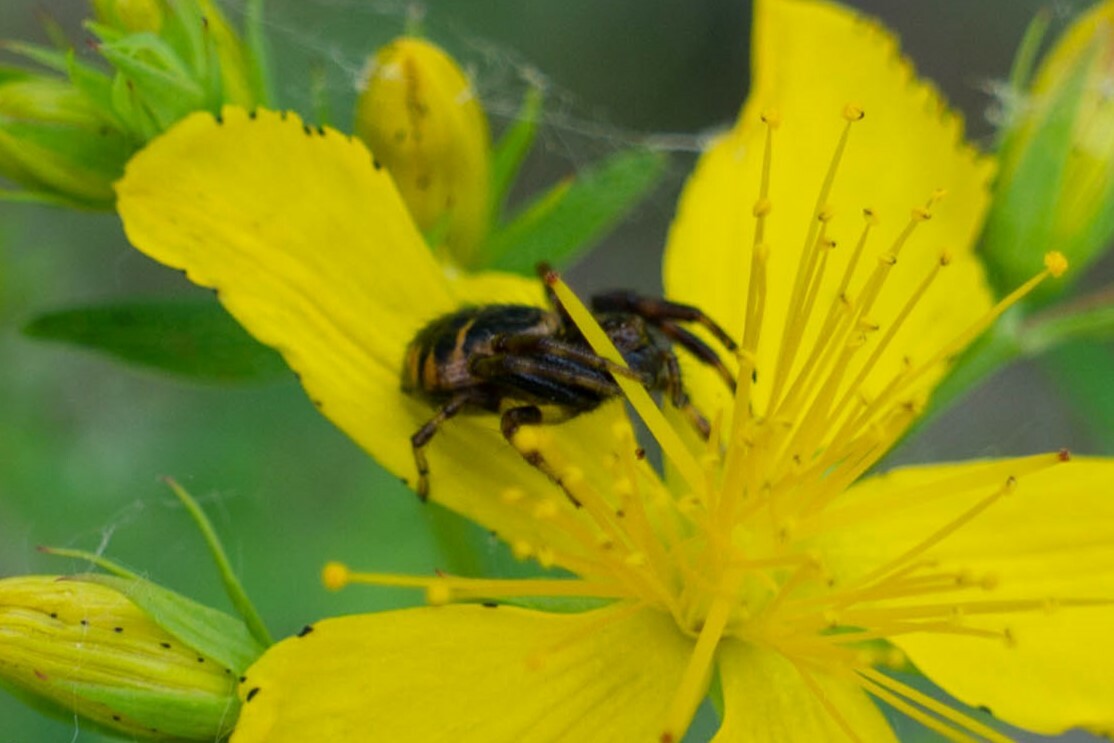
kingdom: Animalia
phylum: Arthropoda
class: Arachnida
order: Araneae
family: Thomisidae
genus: Synema
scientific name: Synema globosum
